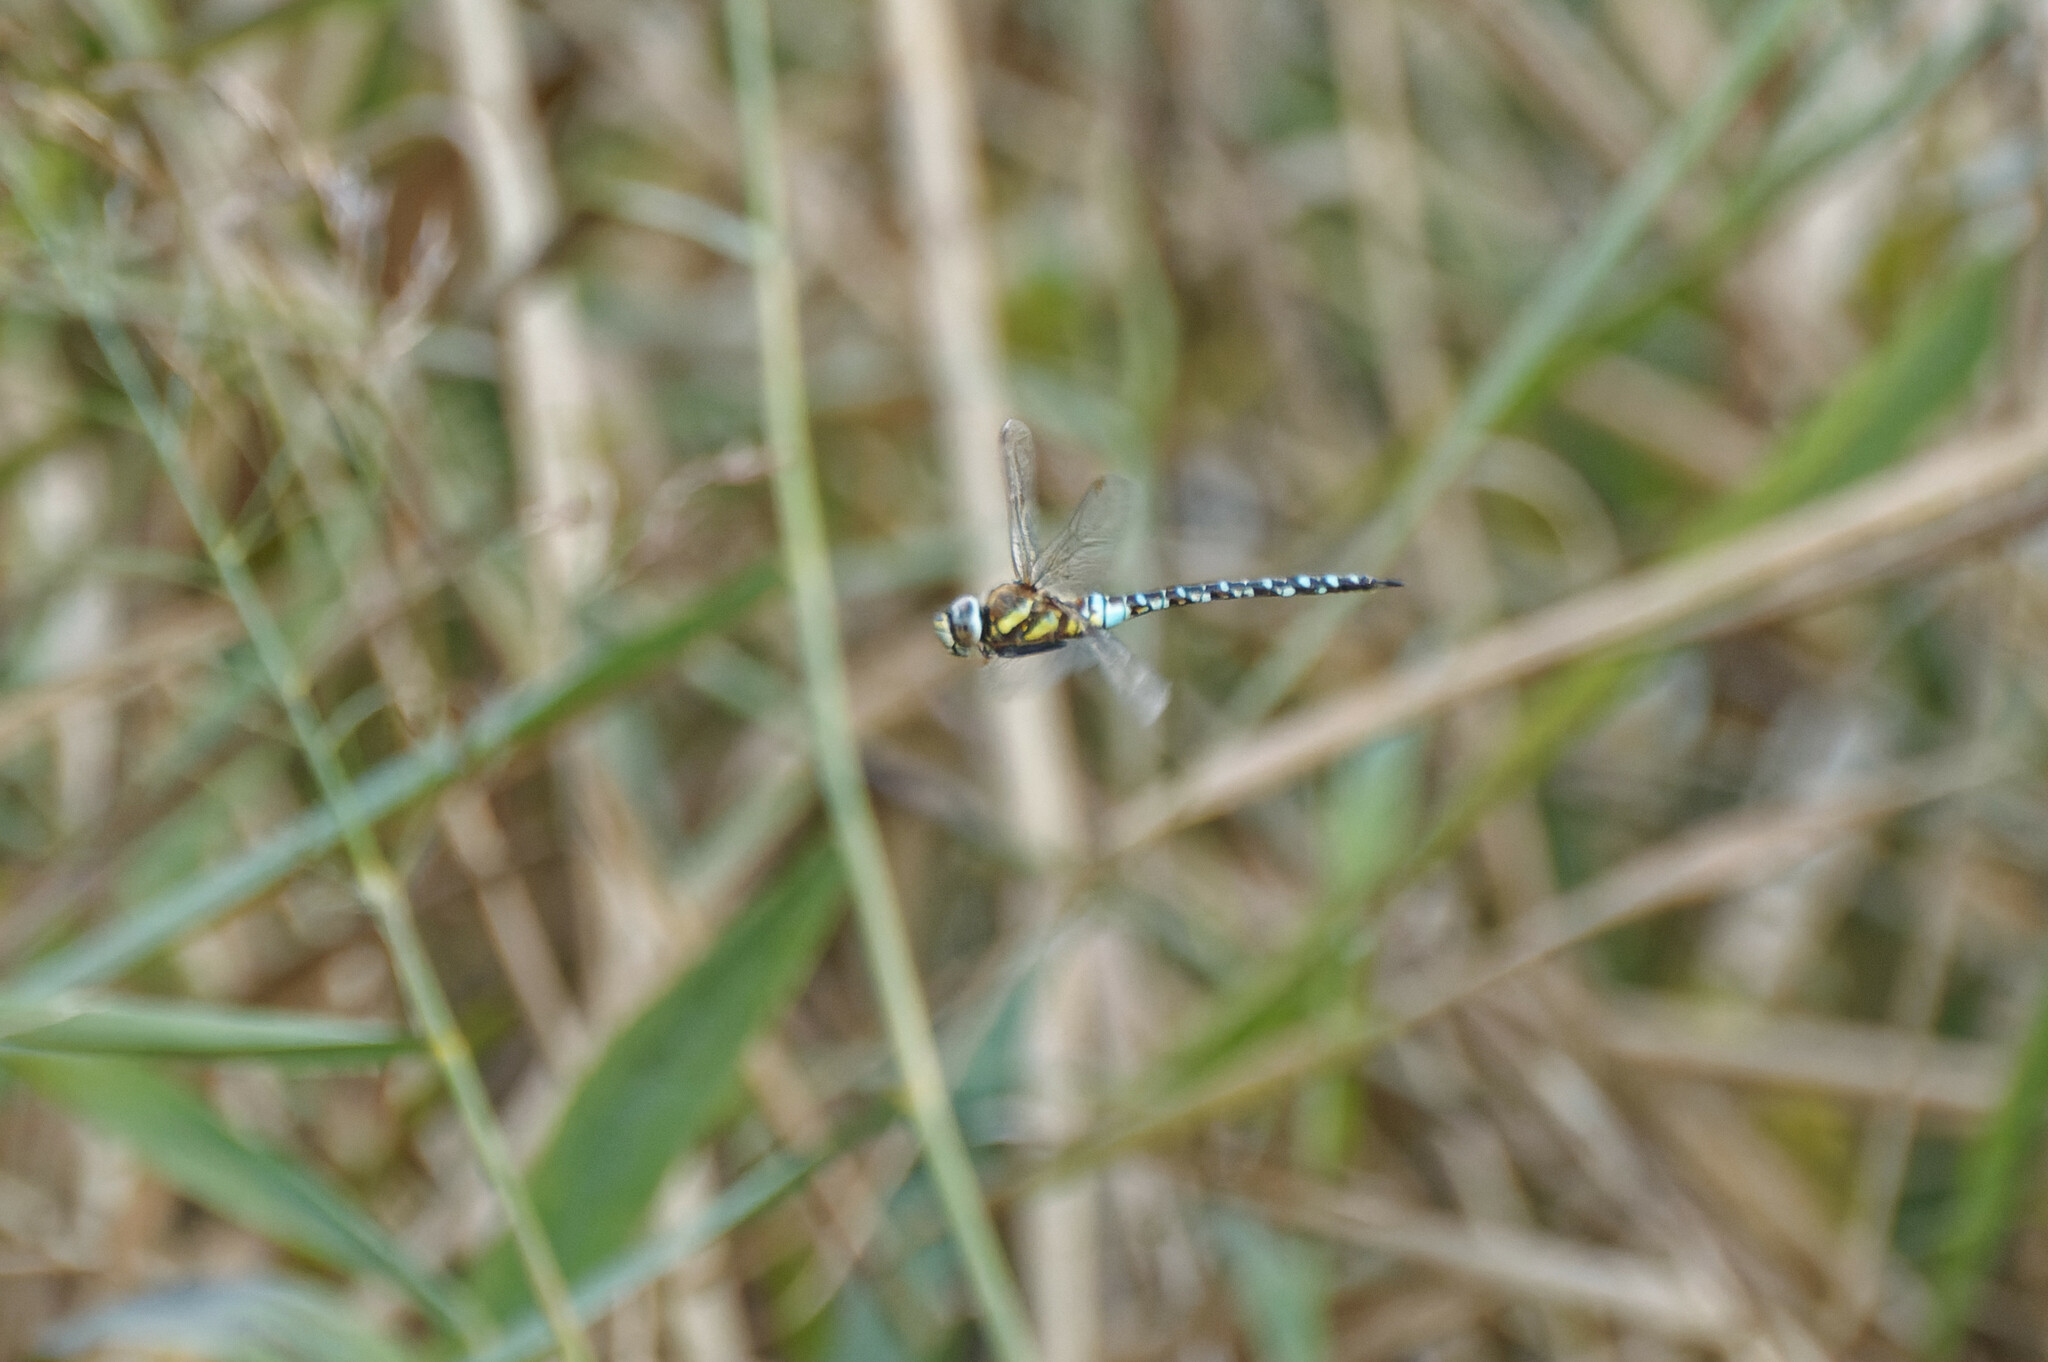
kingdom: Animalia
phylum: Arthropoda
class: Insecta
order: Odonata
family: Aeshnidae
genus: Aeshna
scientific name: Aeshna mixta
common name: Migrant hawker
